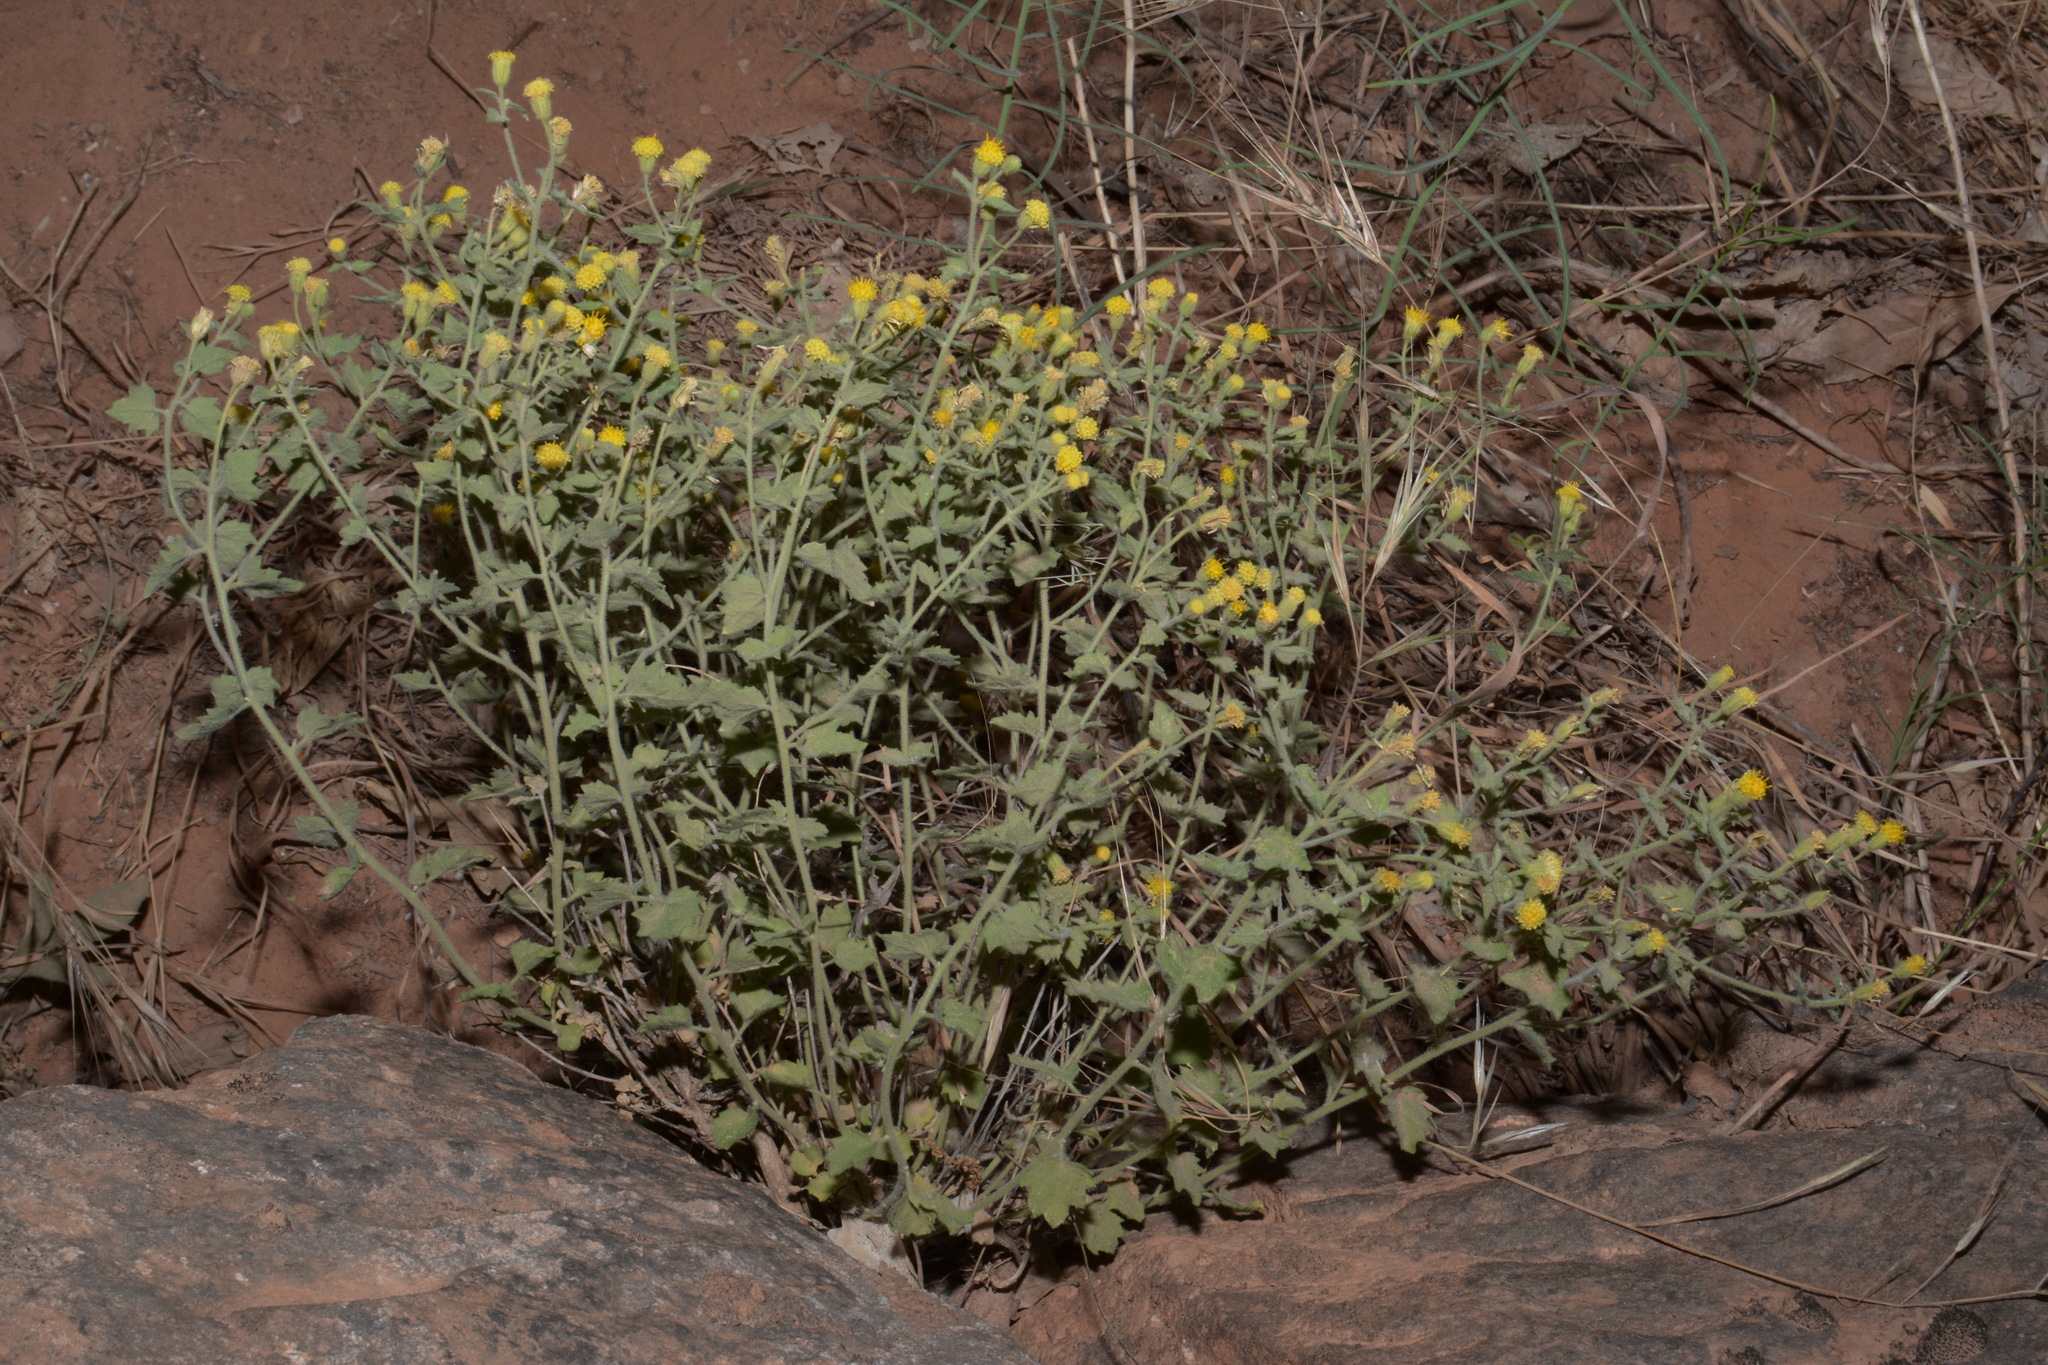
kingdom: Plantae
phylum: Tracheophyta
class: Magnoliopsida
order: Asterales
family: Asteraceae
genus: Laphamia
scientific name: Laphamia sanchezii
